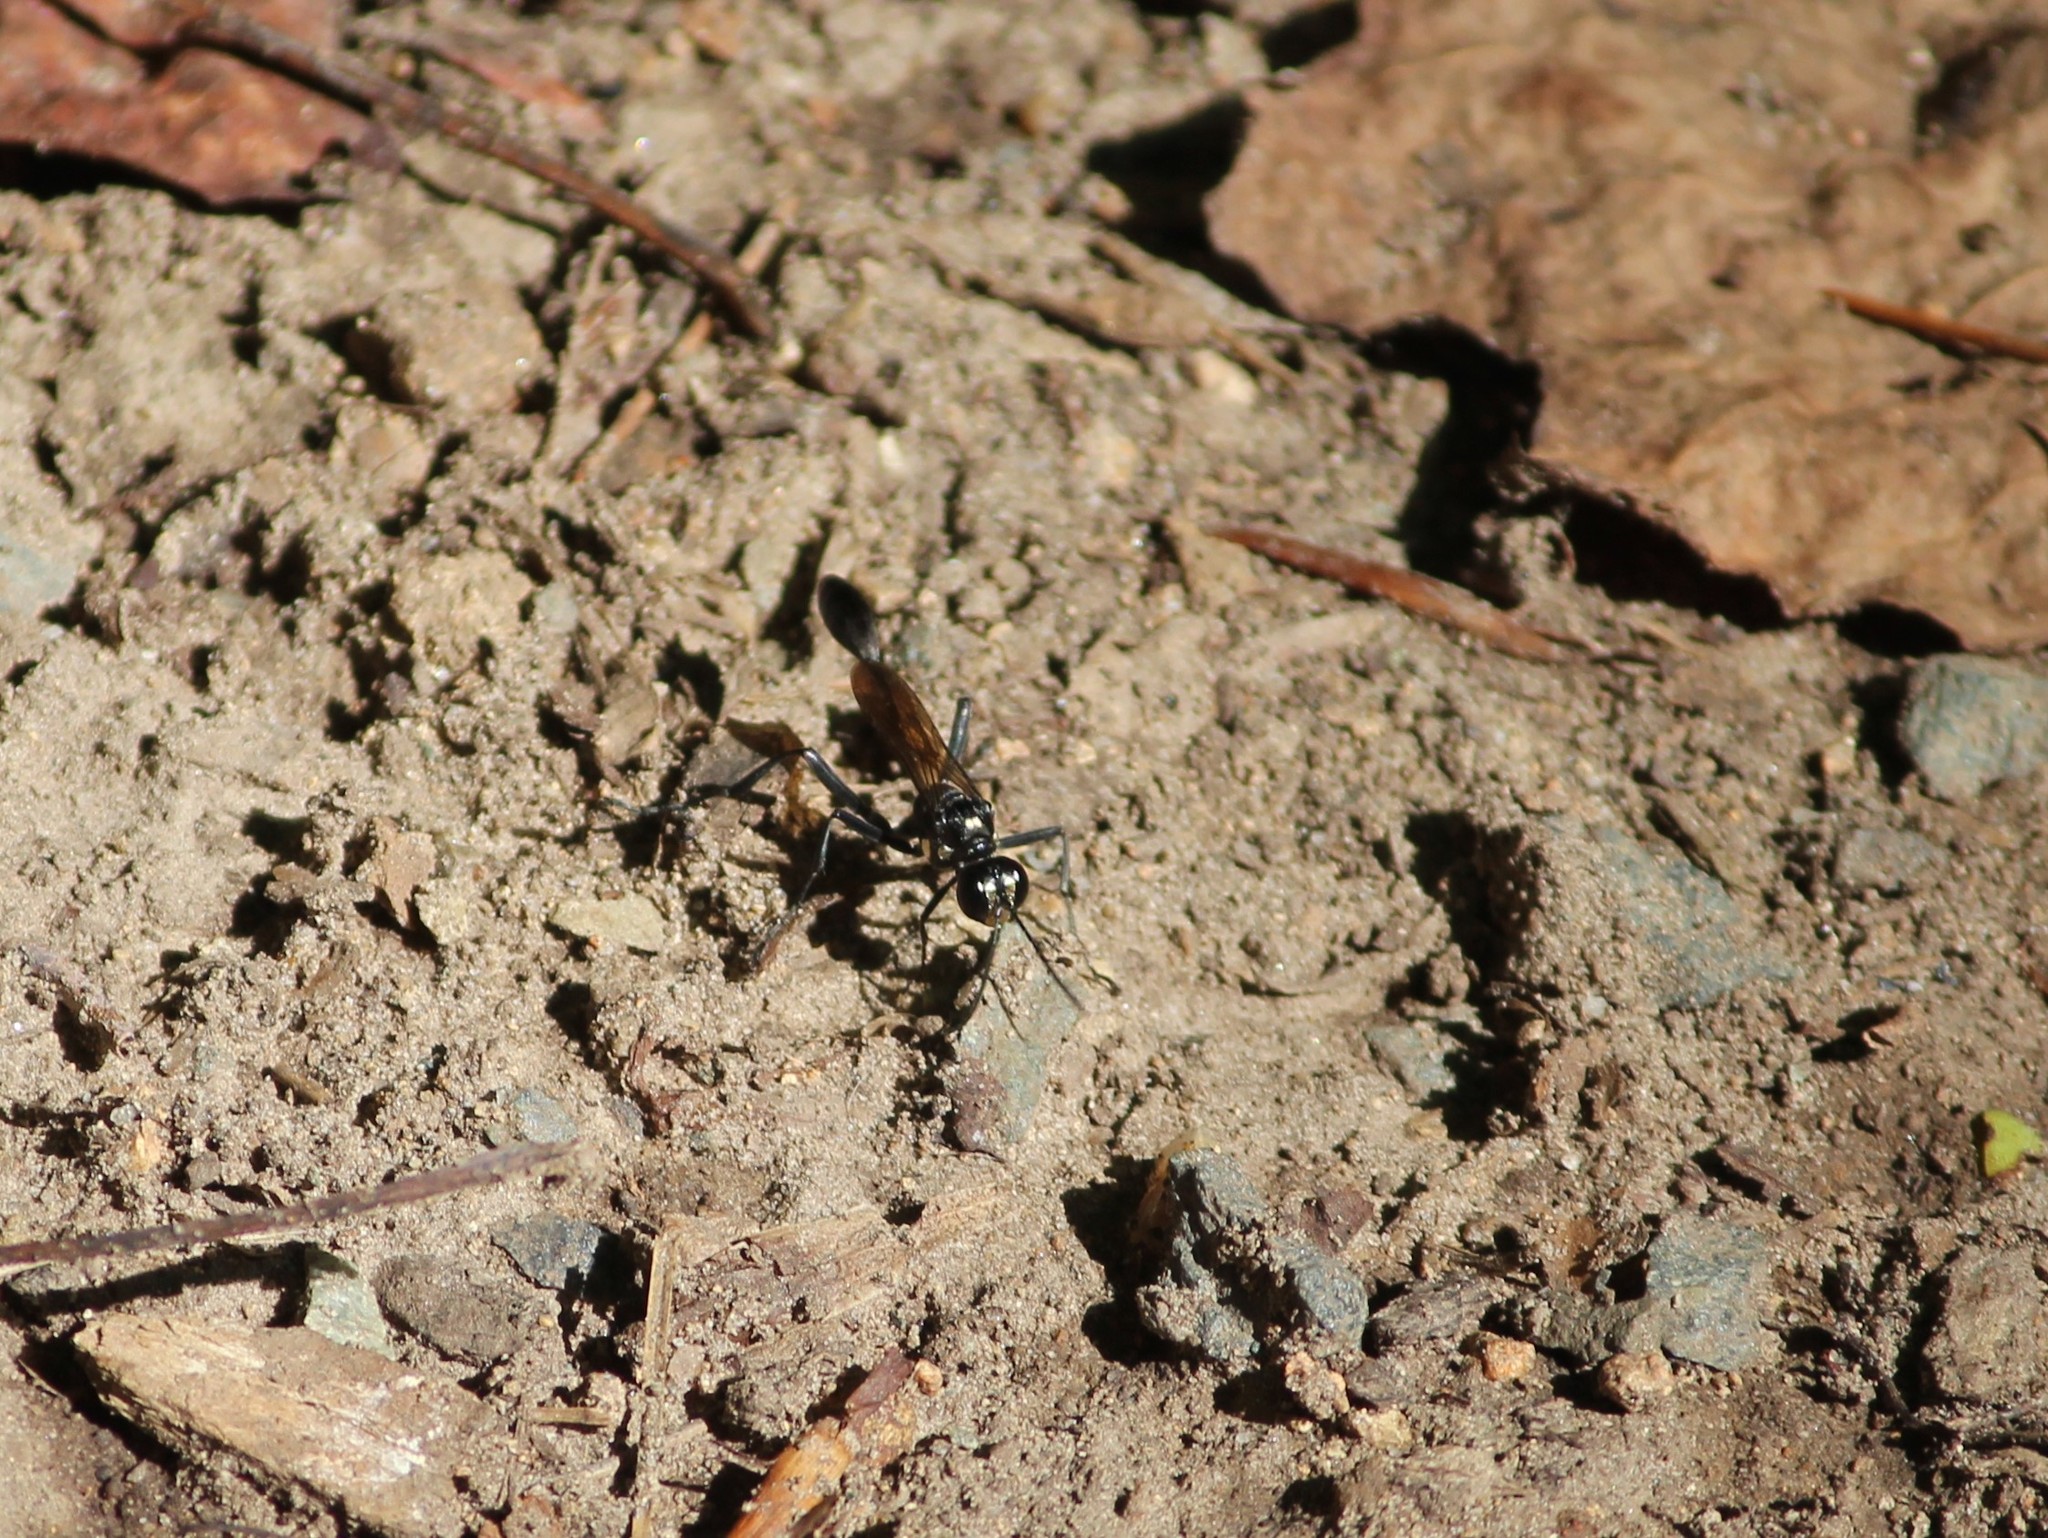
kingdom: Animalia
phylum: Arthropoda
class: Insecta
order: Hymenoptera
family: Sphecidae
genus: Eremnophila
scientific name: Eremnophila aureonotata
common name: Gold-marked thread-waisted wasp
